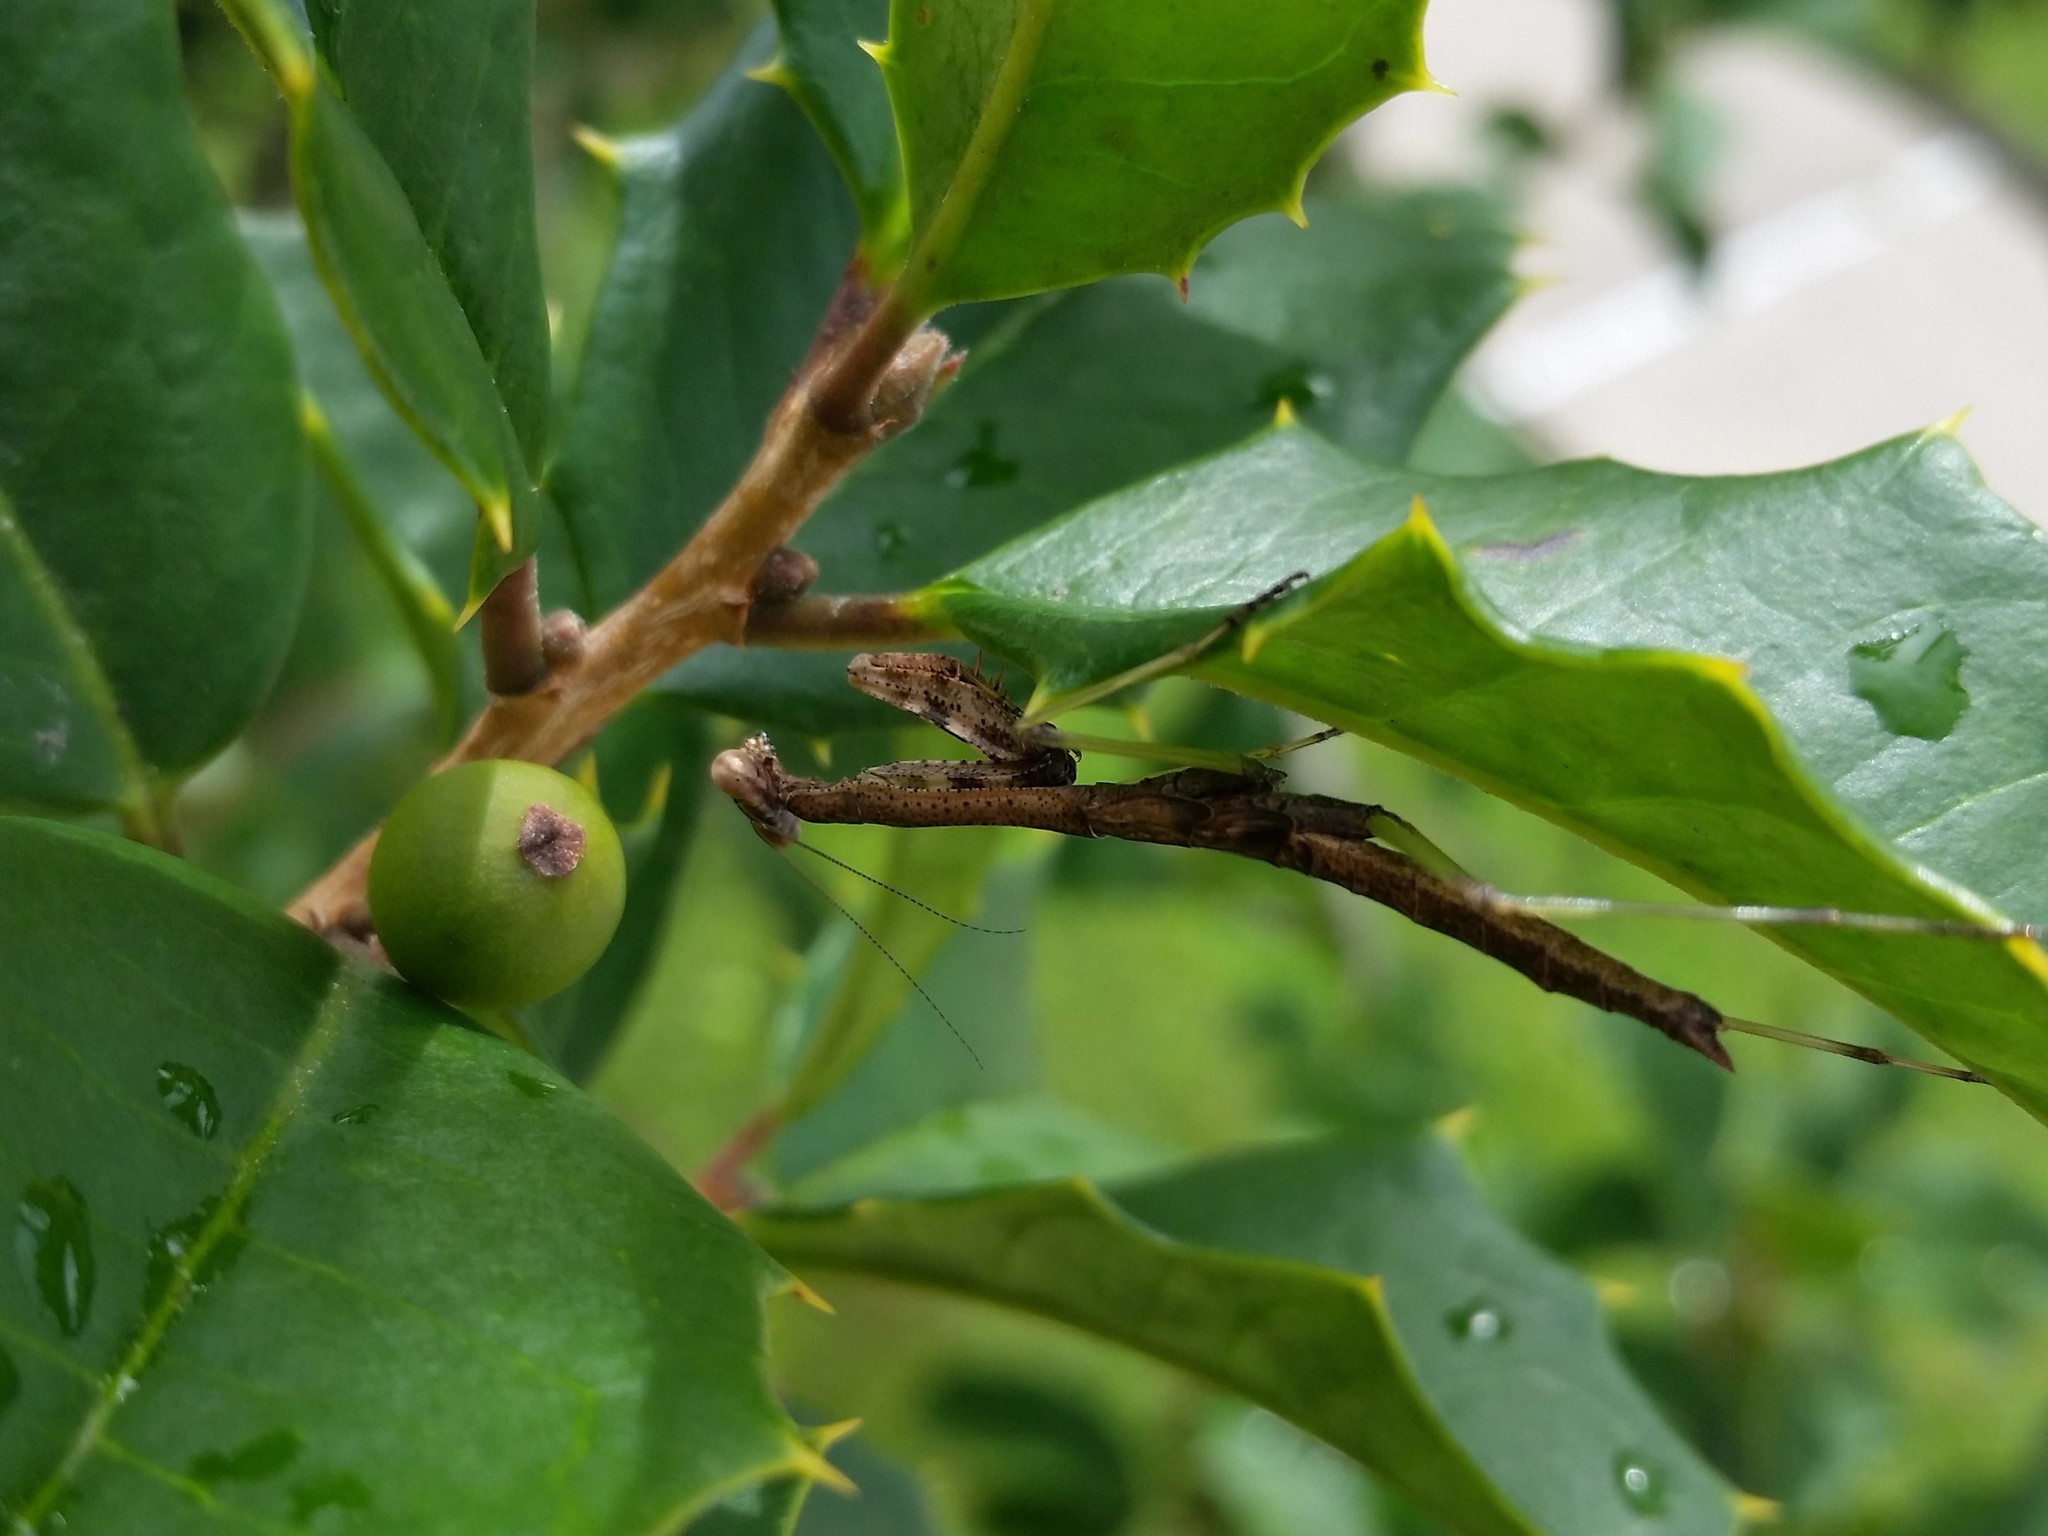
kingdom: Animalia
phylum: Arthropoda
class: Insecta
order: Mantodea
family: Mantidae
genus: Stagmomantis
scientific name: Stagmomantis carolina
